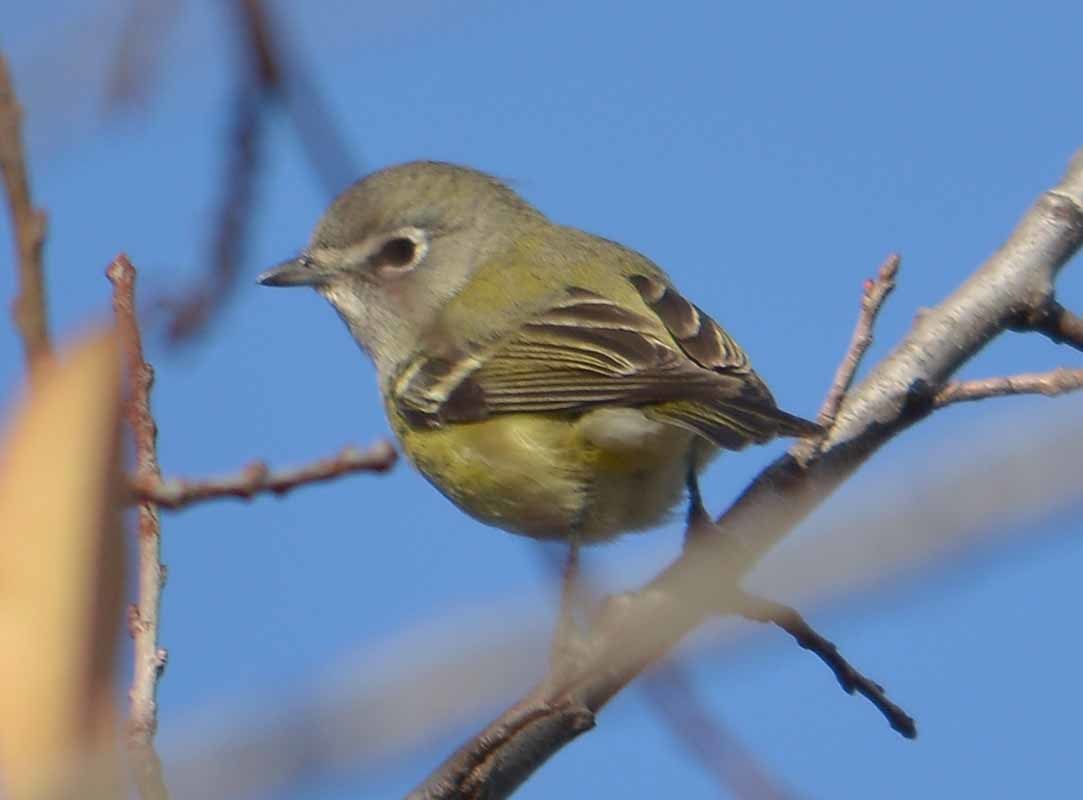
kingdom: Animalia
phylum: Chordata
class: Aves
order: Passeriformes
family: Vireonidae
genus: Vireo
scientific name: Vireo cassinii
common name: Cassin's vireo
